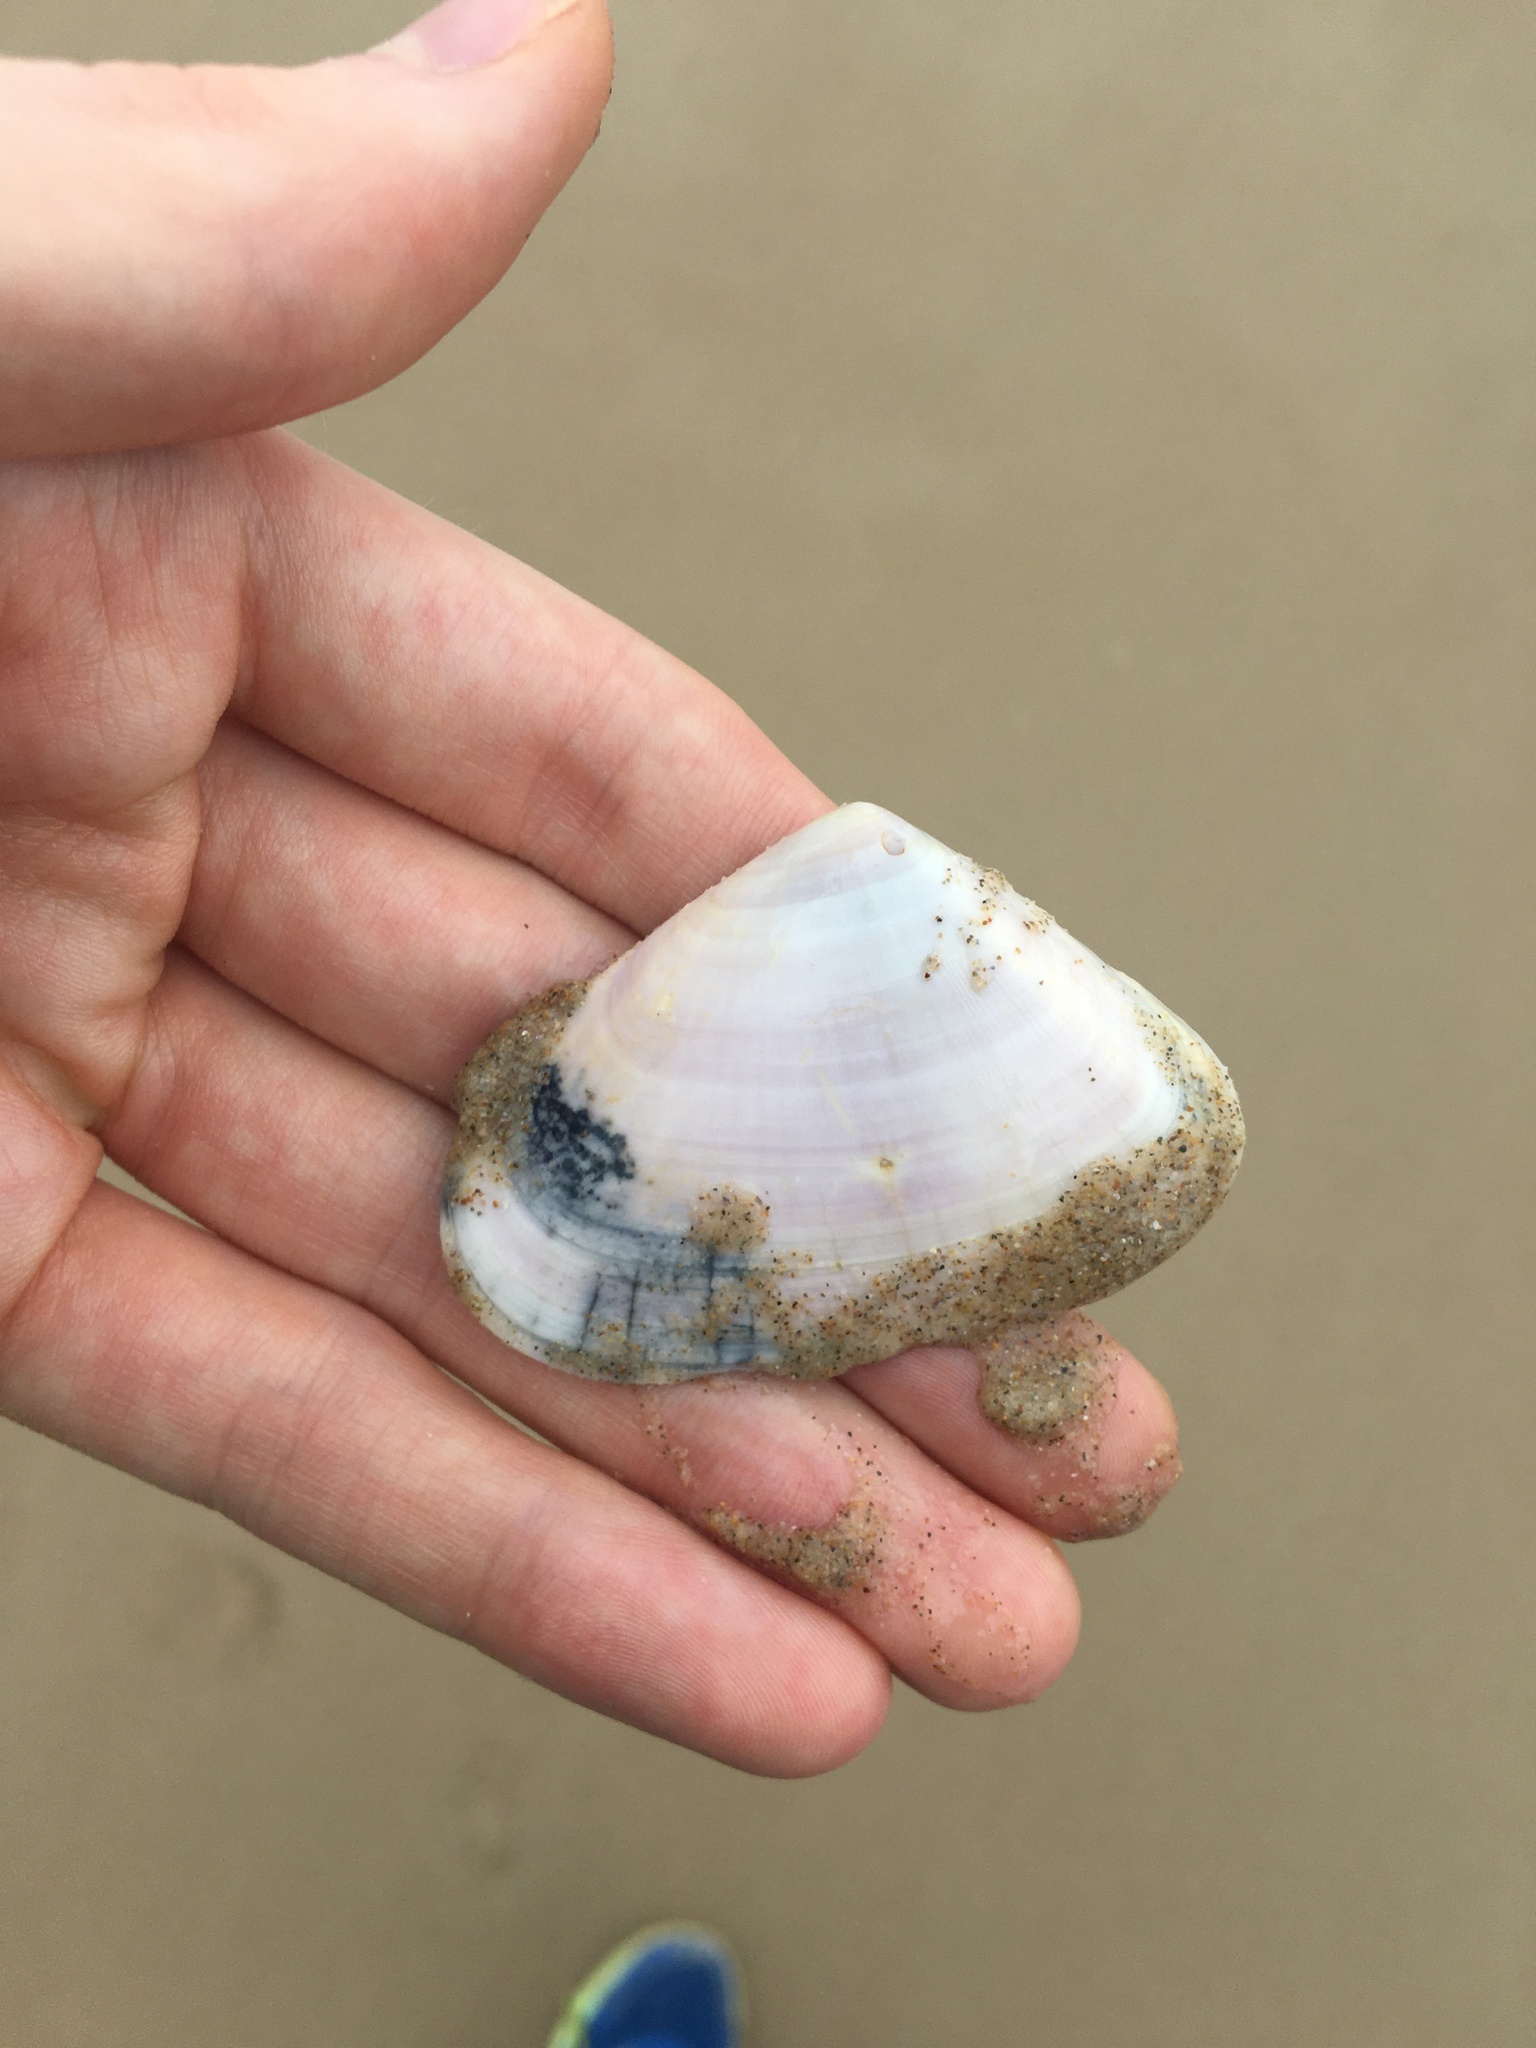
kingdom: Animalia
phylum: Mollusca
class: Bivalvia
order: Cardiida
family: Donacidae
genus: Latona
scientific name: Latona deltoides
